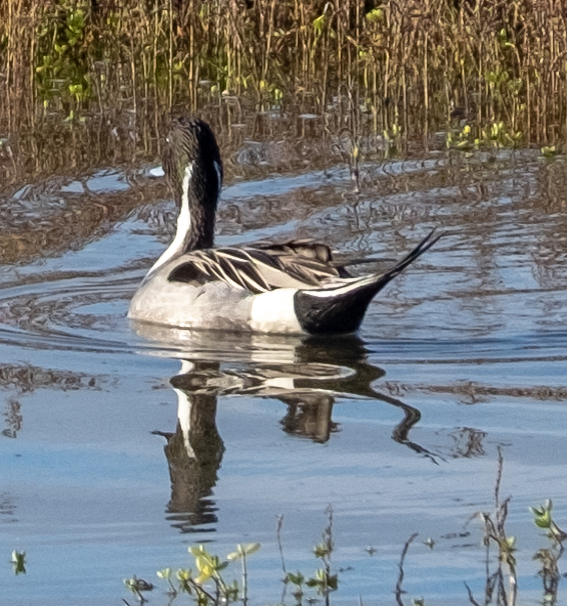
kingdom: Animalia
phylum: Chordata
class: Aves
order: Anseriformes
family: Anatidae
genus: Anas
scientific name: Anas acuta
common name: Northern pintail
